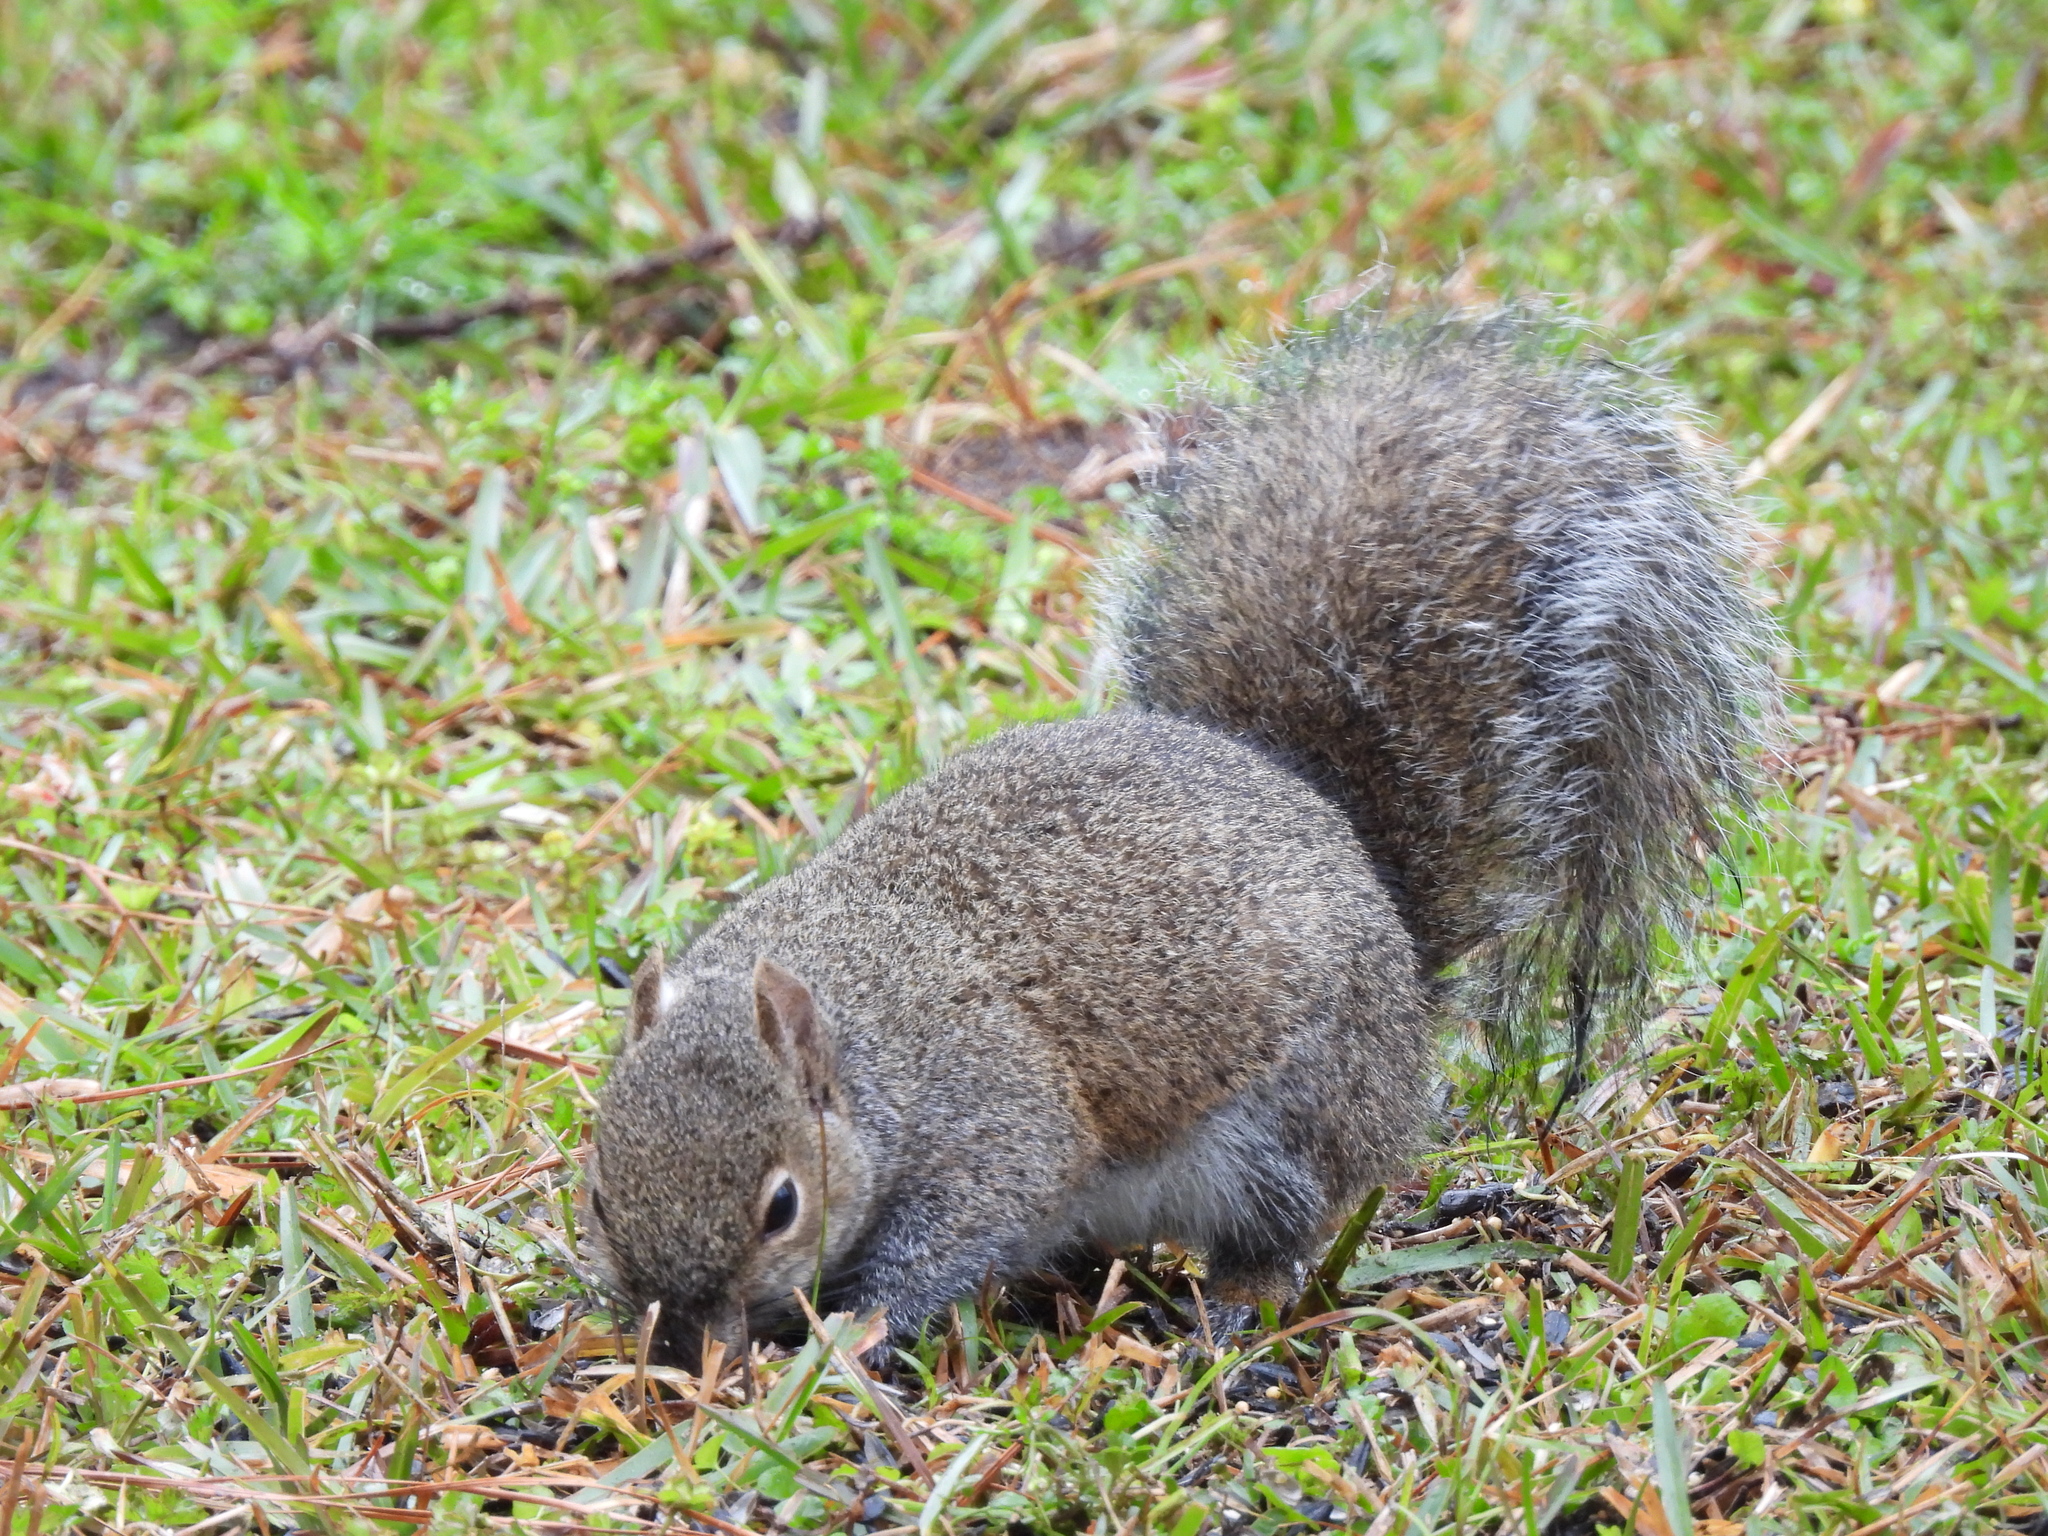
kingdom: Animalia
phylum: Chordata
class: Mammalia
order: Rodentia
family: Sciuridae
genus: Sciurus
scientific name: Sciurus carolinensis
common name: Eastern gray squirrel
